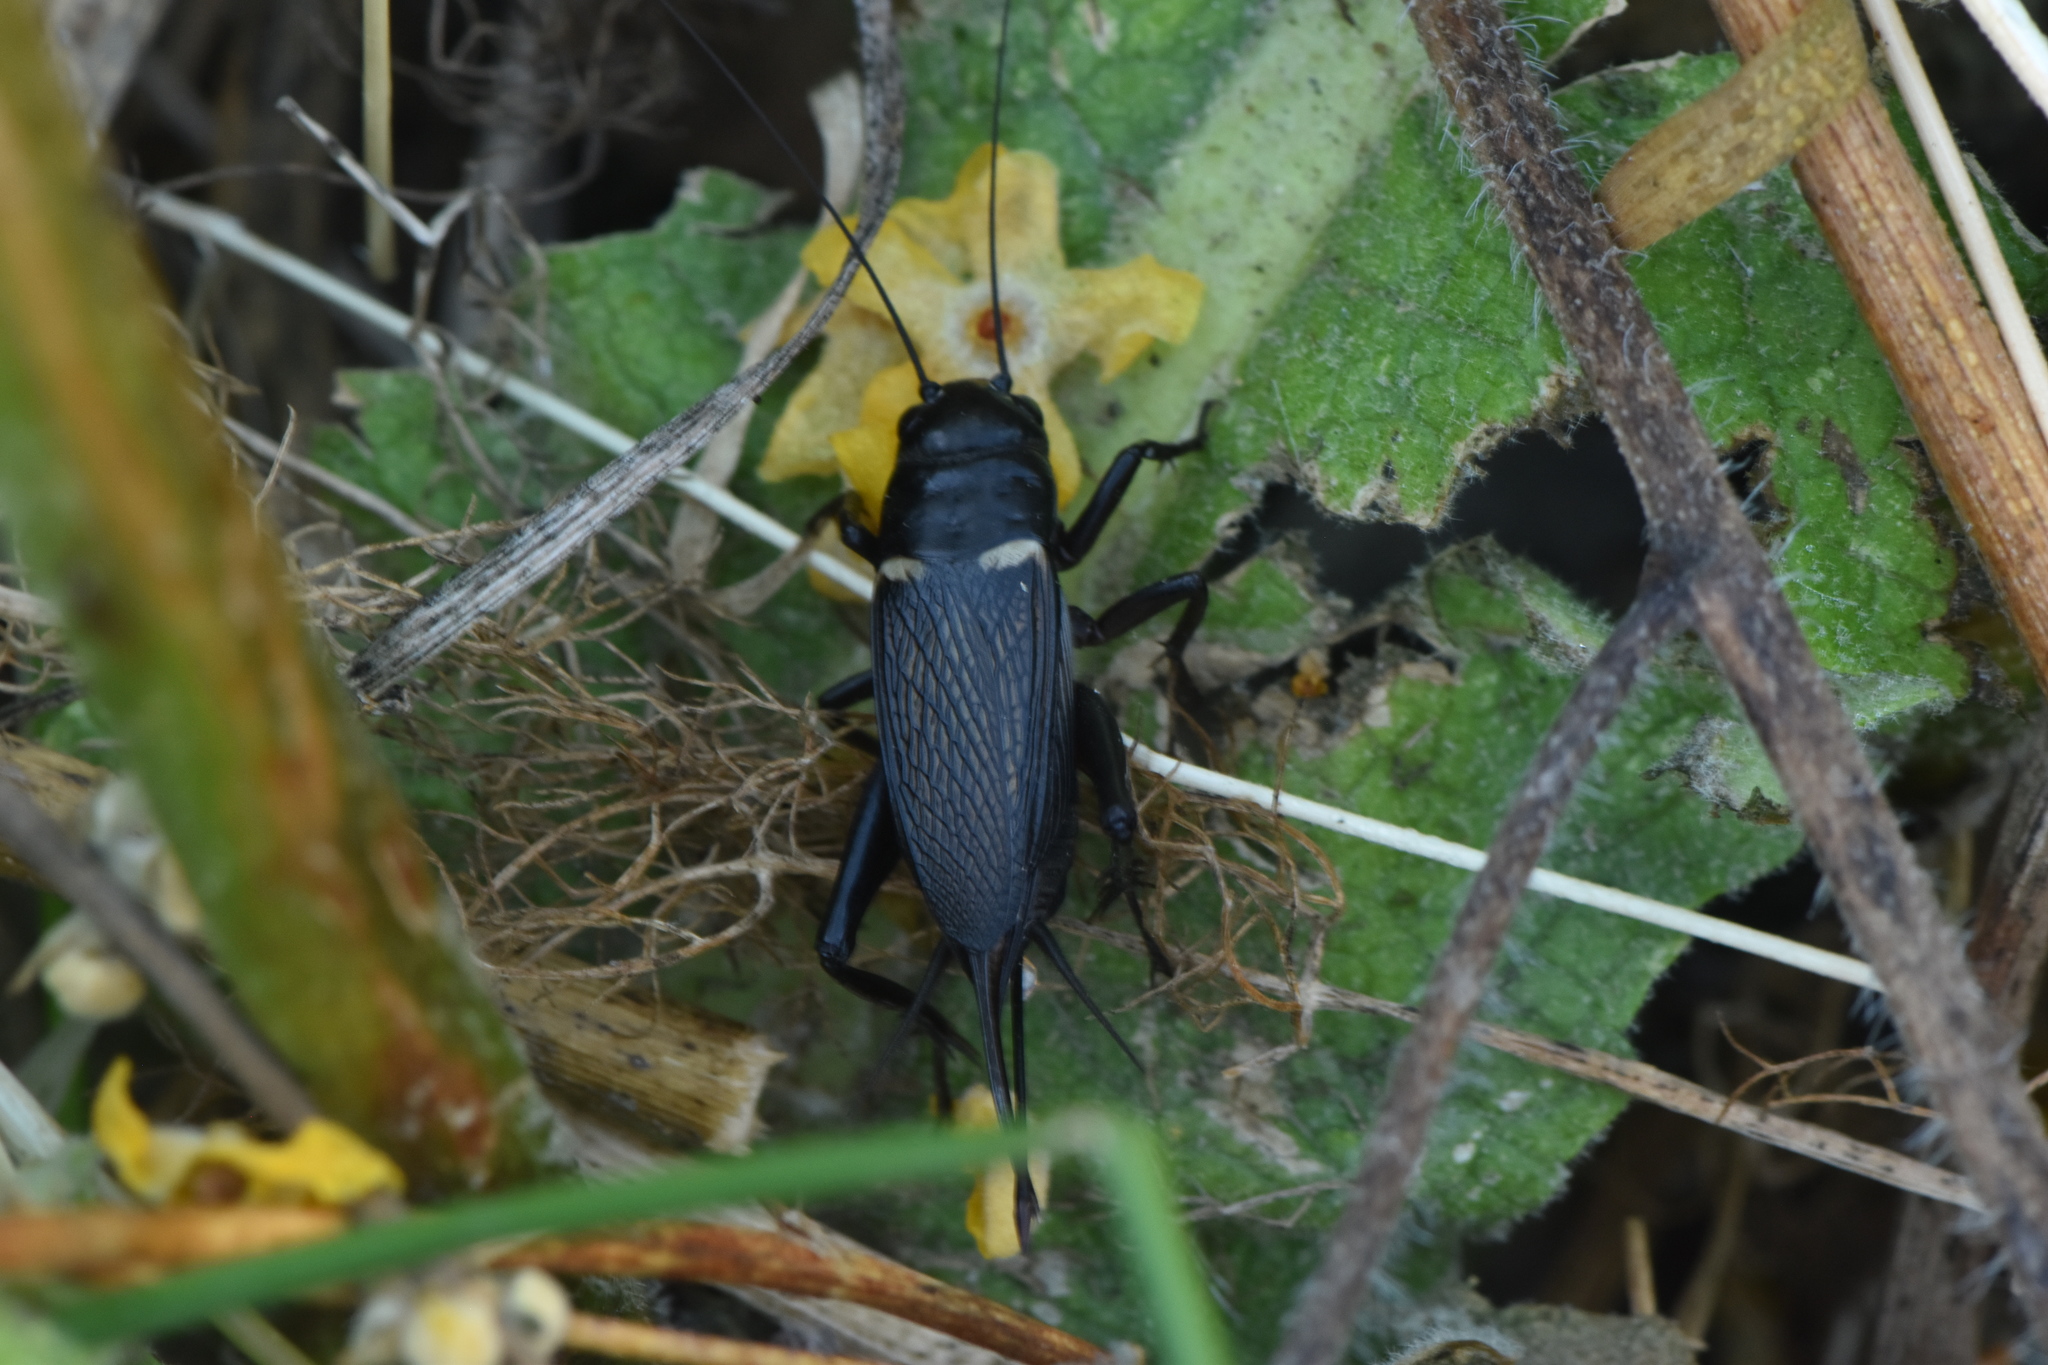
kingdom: Animalia
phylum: Arthropoda
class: Insecta
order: Orthoptera
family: Gryllidae
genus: Gryllus
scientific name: Gryllus bimaculatus
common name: Two-spotted cricket
